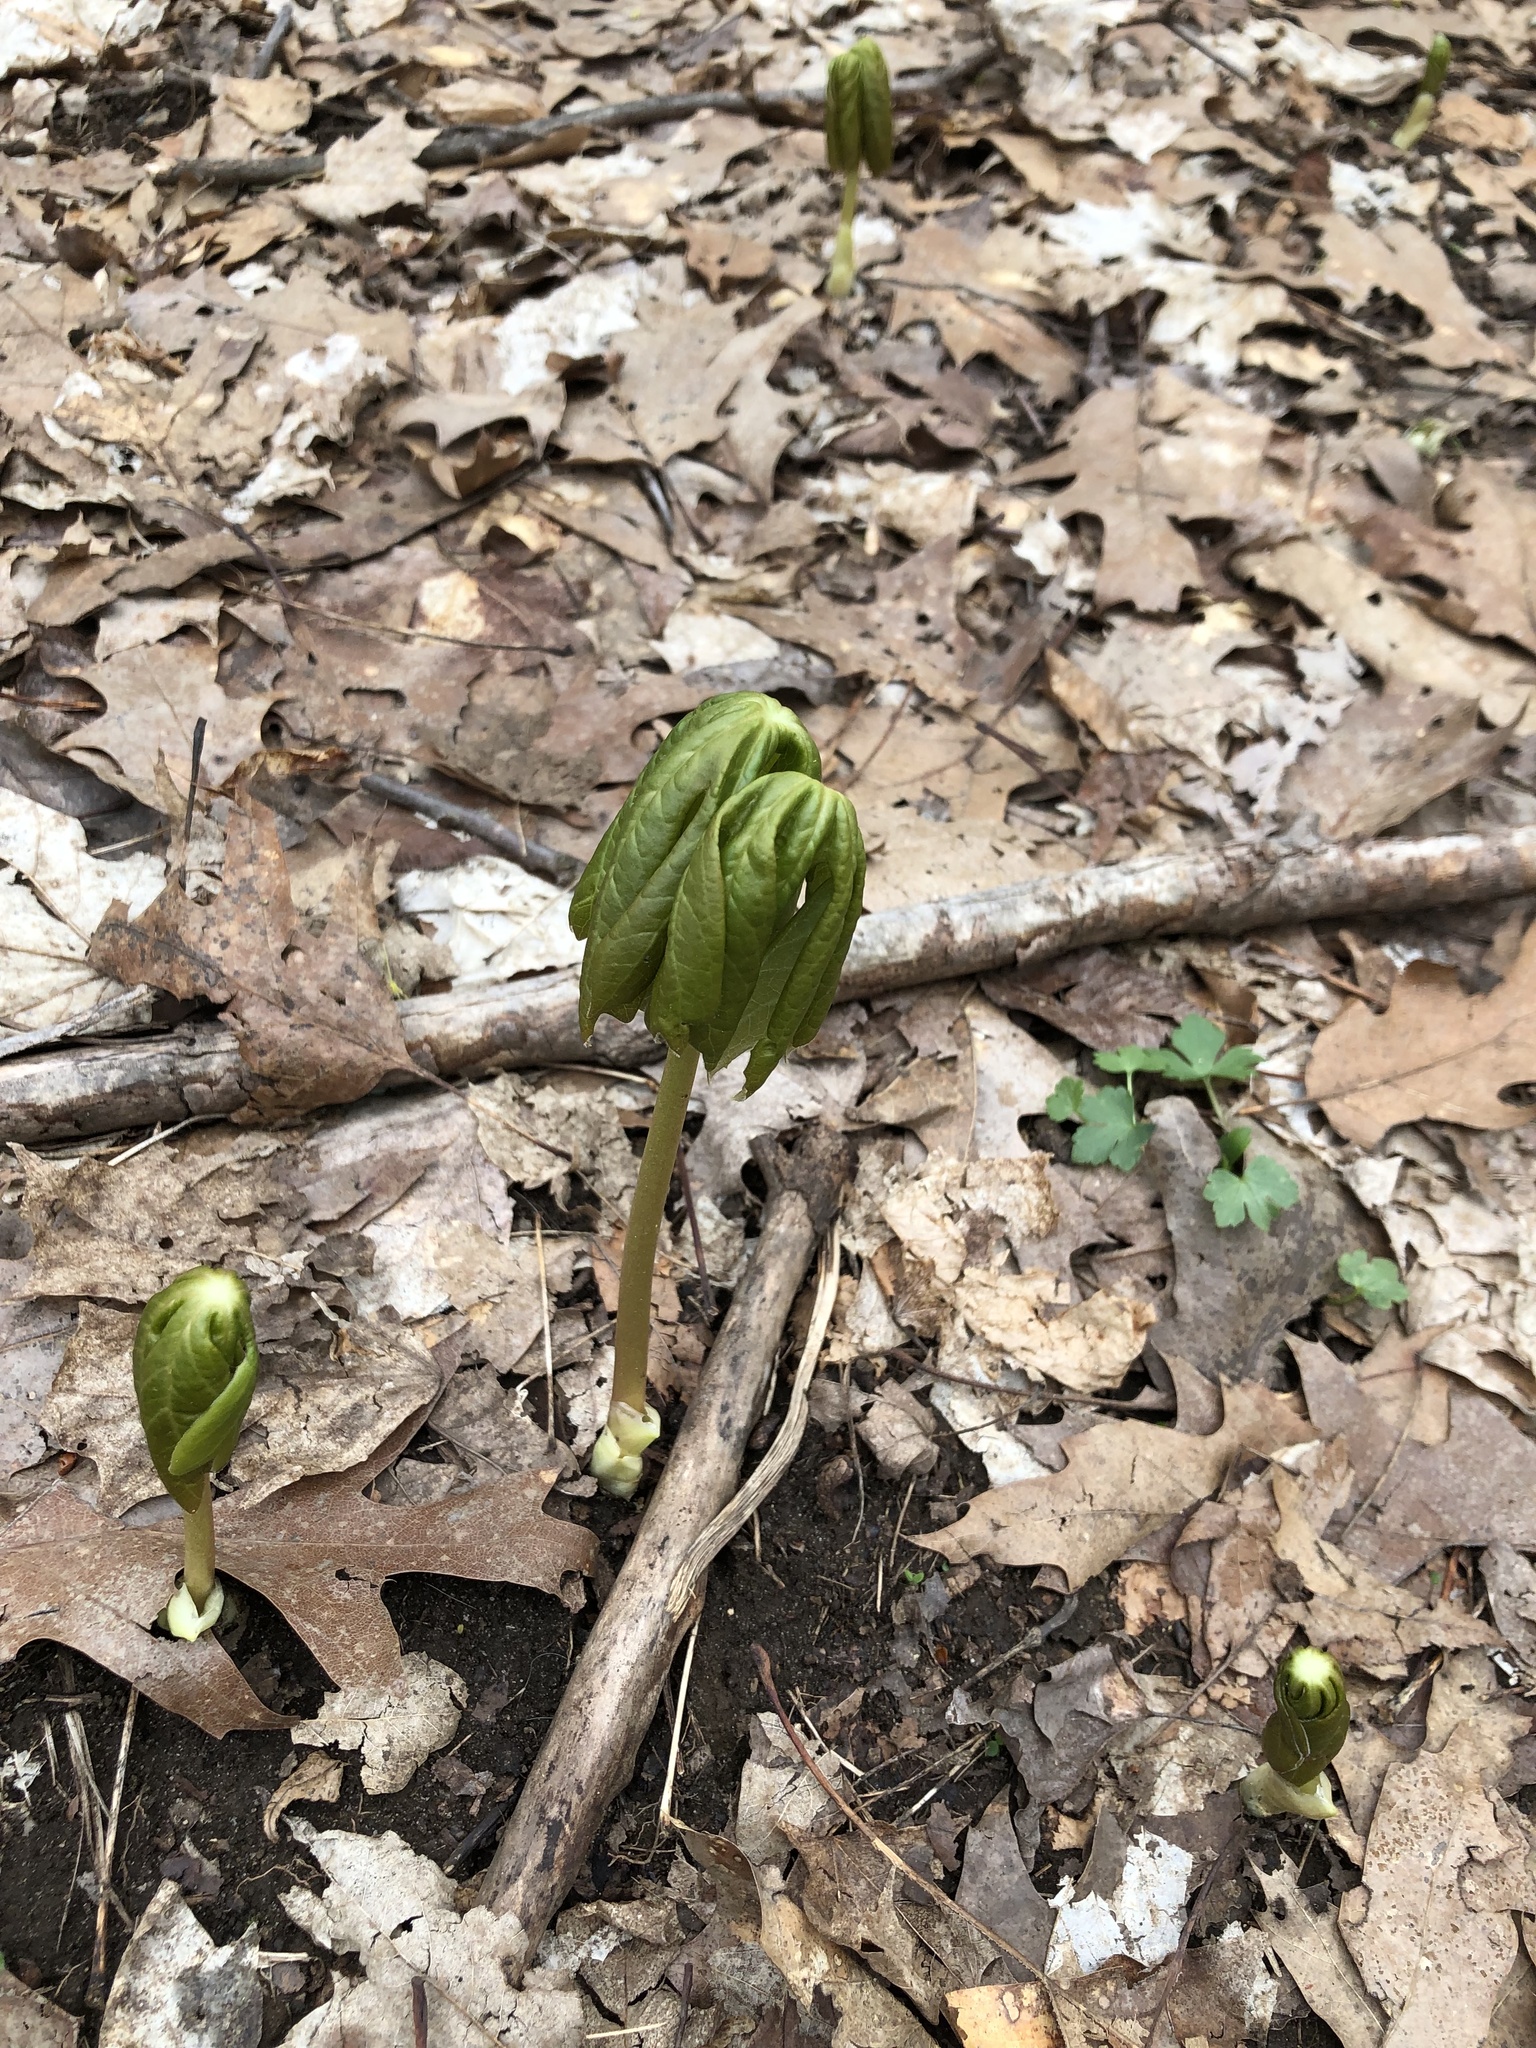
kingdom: Plantae
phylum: Tracheophyta
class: Magnoliopsida
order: Ranunculales
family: Berberidaceae
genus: Podophyllum
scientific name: Podophyllum peltatum
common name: Wild mandrake
